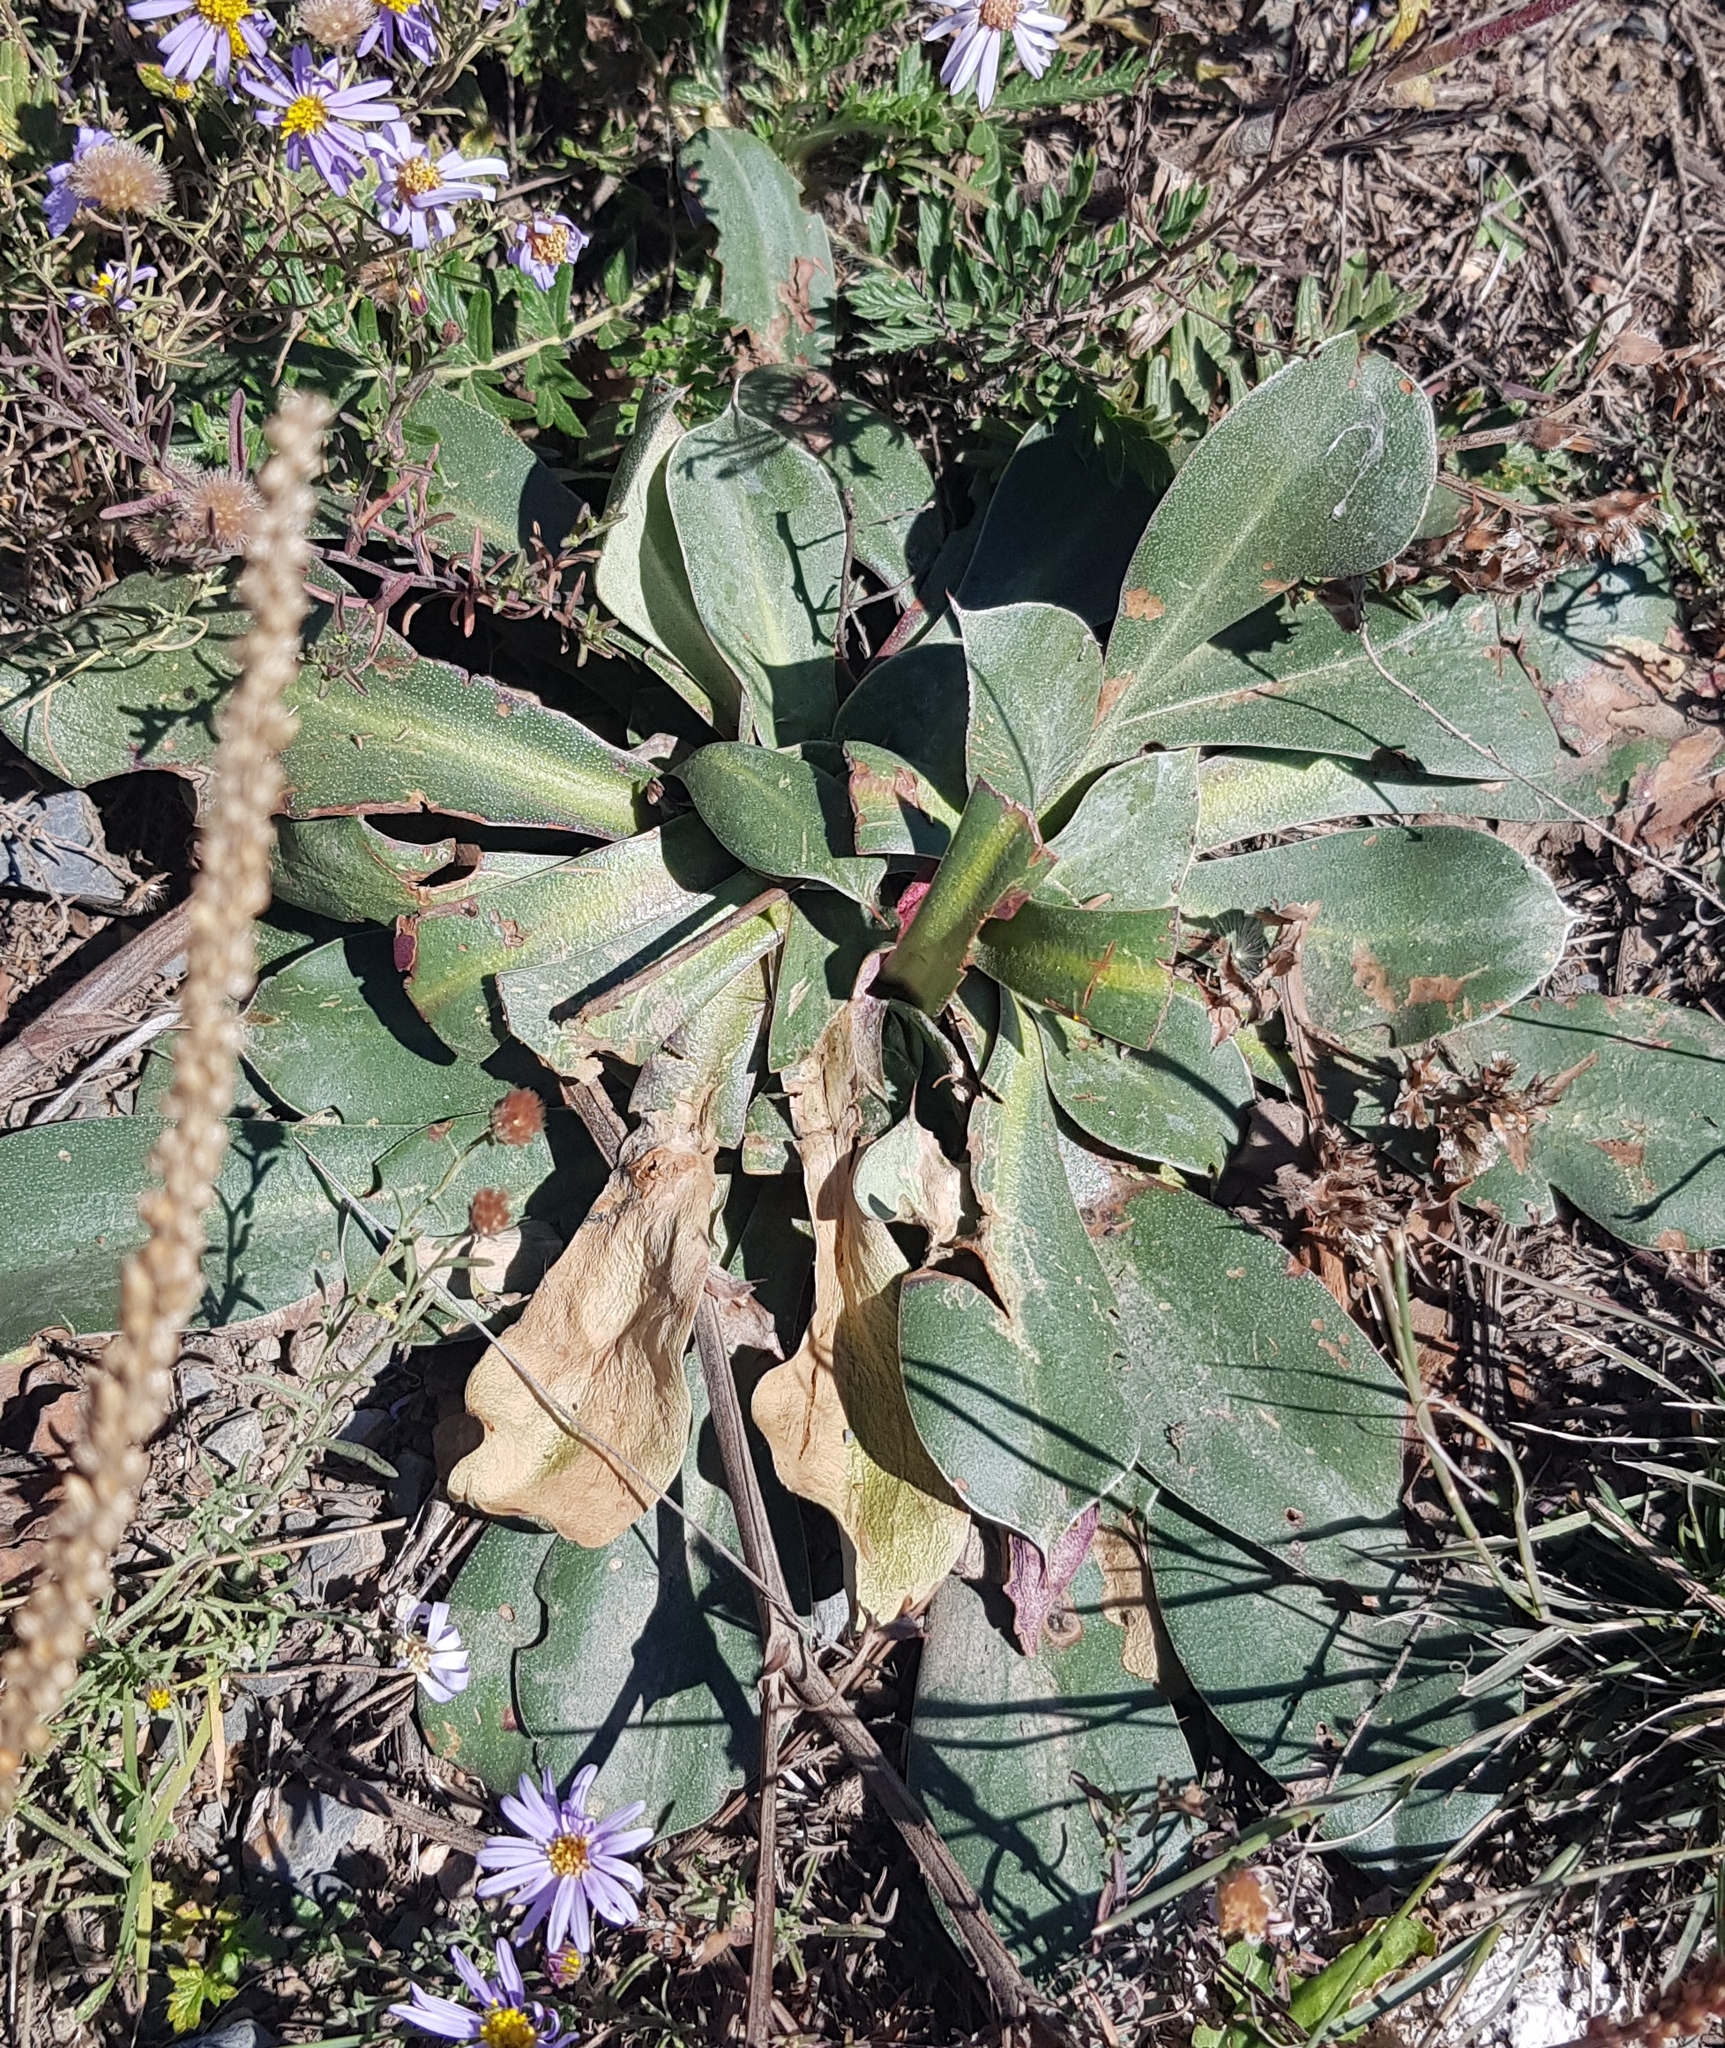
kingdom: Plantae
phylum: Tracheophyta
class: Magnoliopsida
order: Caryophyllales
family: Plumbaginaceae
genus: Goniolimon
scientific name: Goniolimon speciosum
